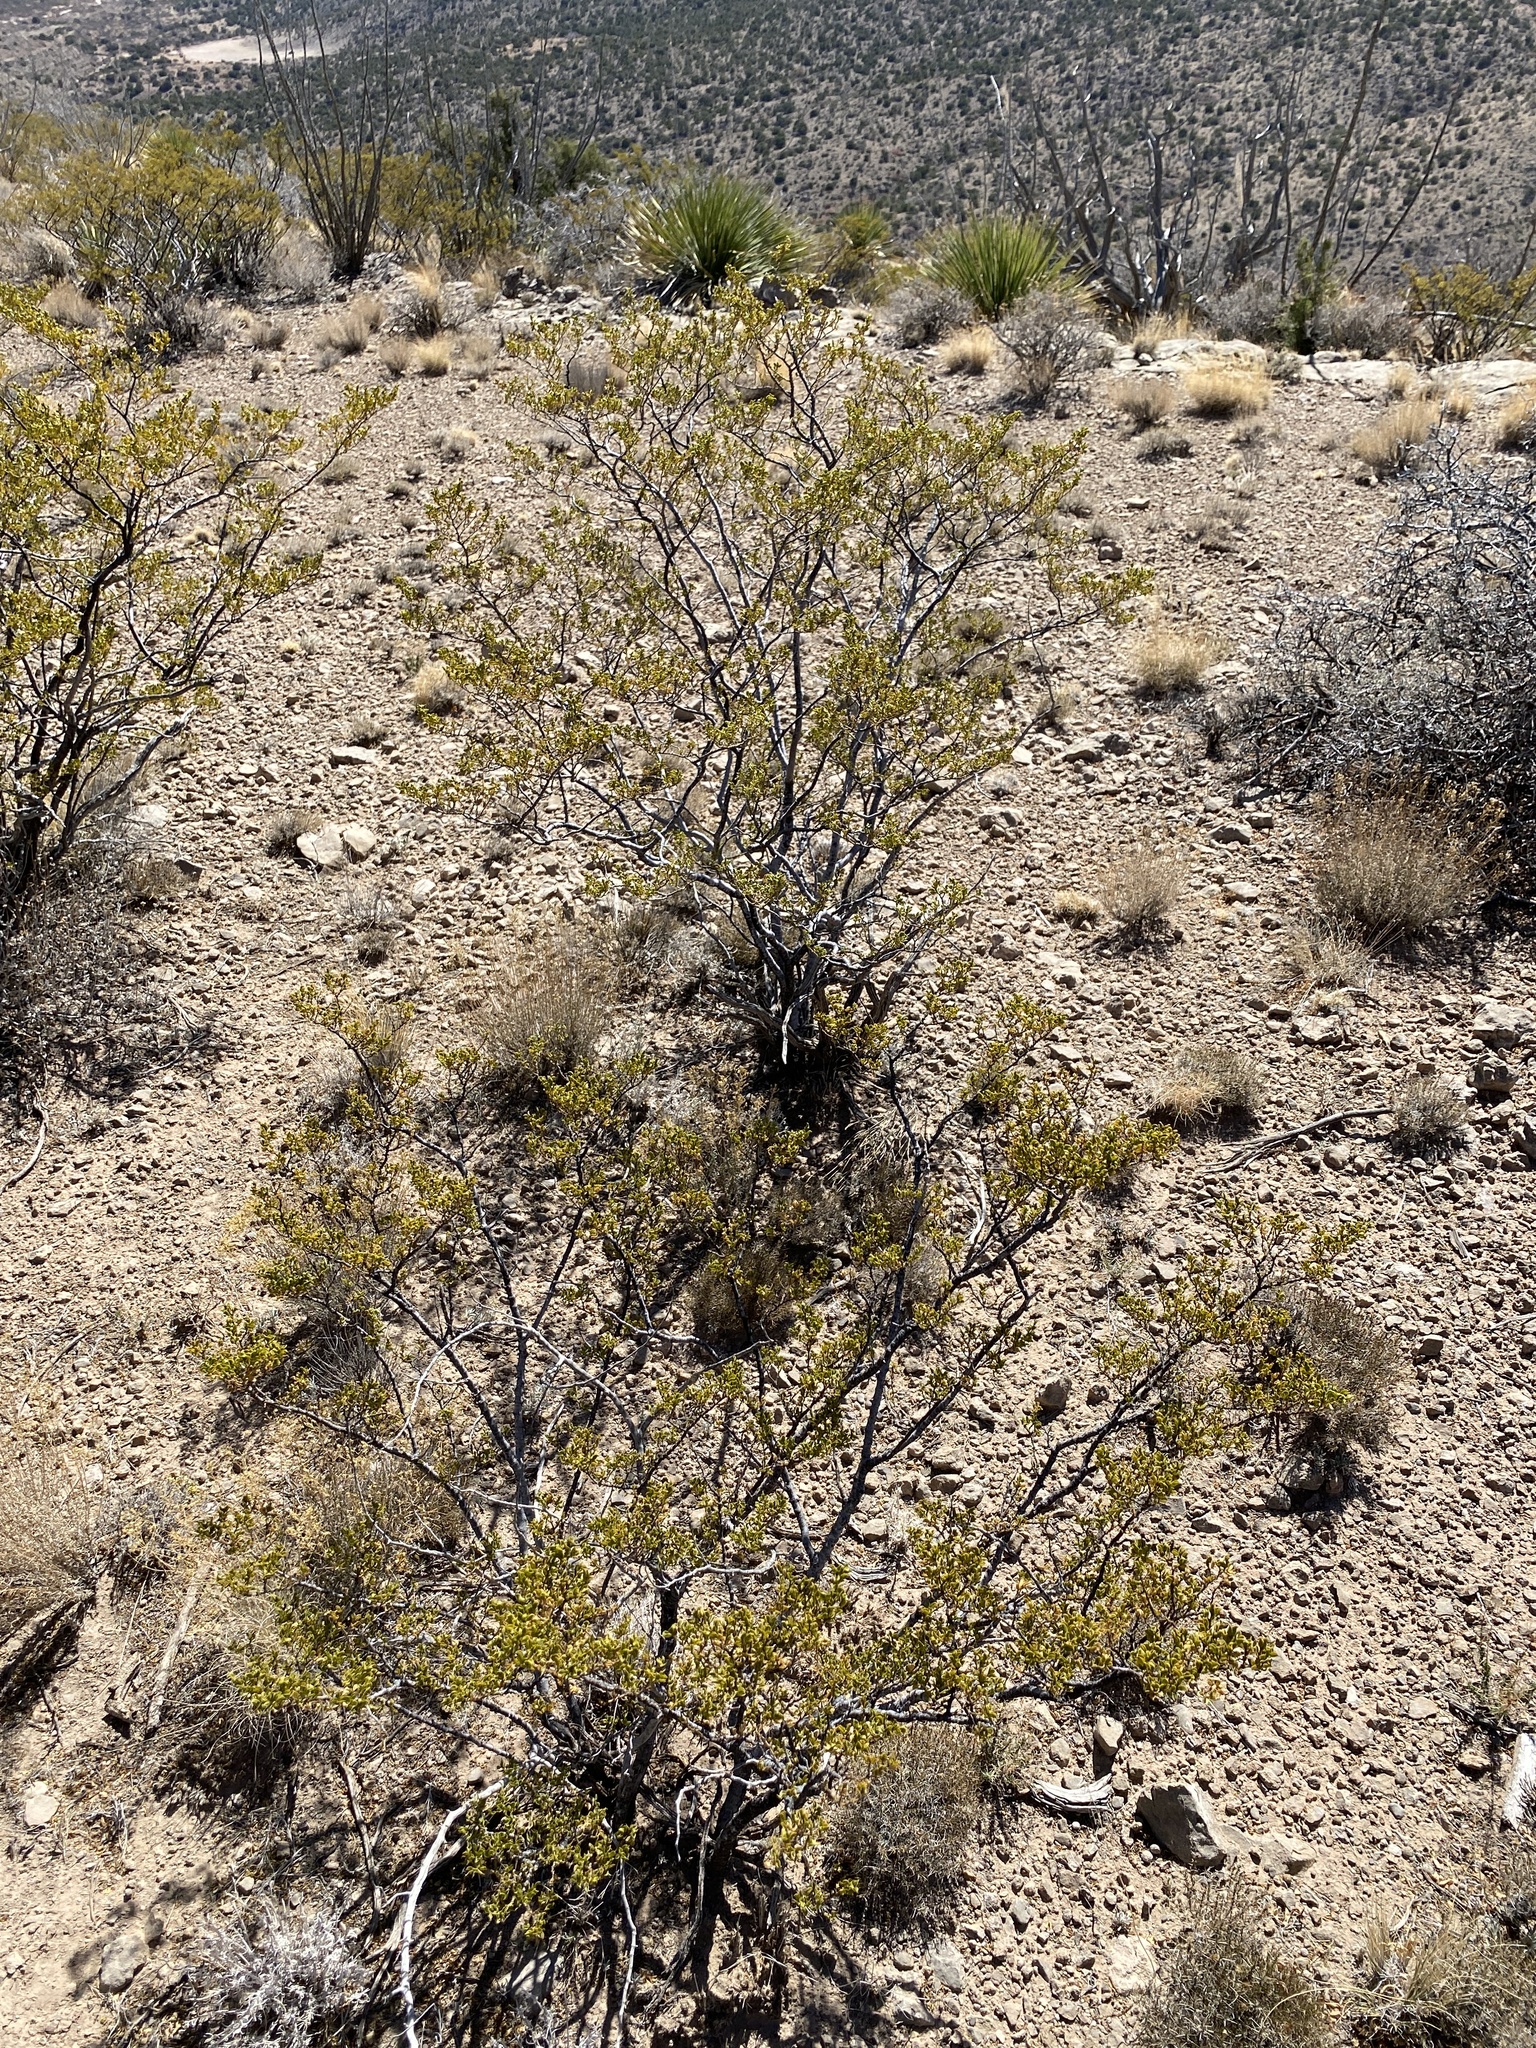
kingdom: Plantae
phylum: Tracheophyta
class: Magnoliopsida
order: Zygophyllales
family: Zygophyllaceae
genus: Larrea
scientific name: Larrea tridentata
